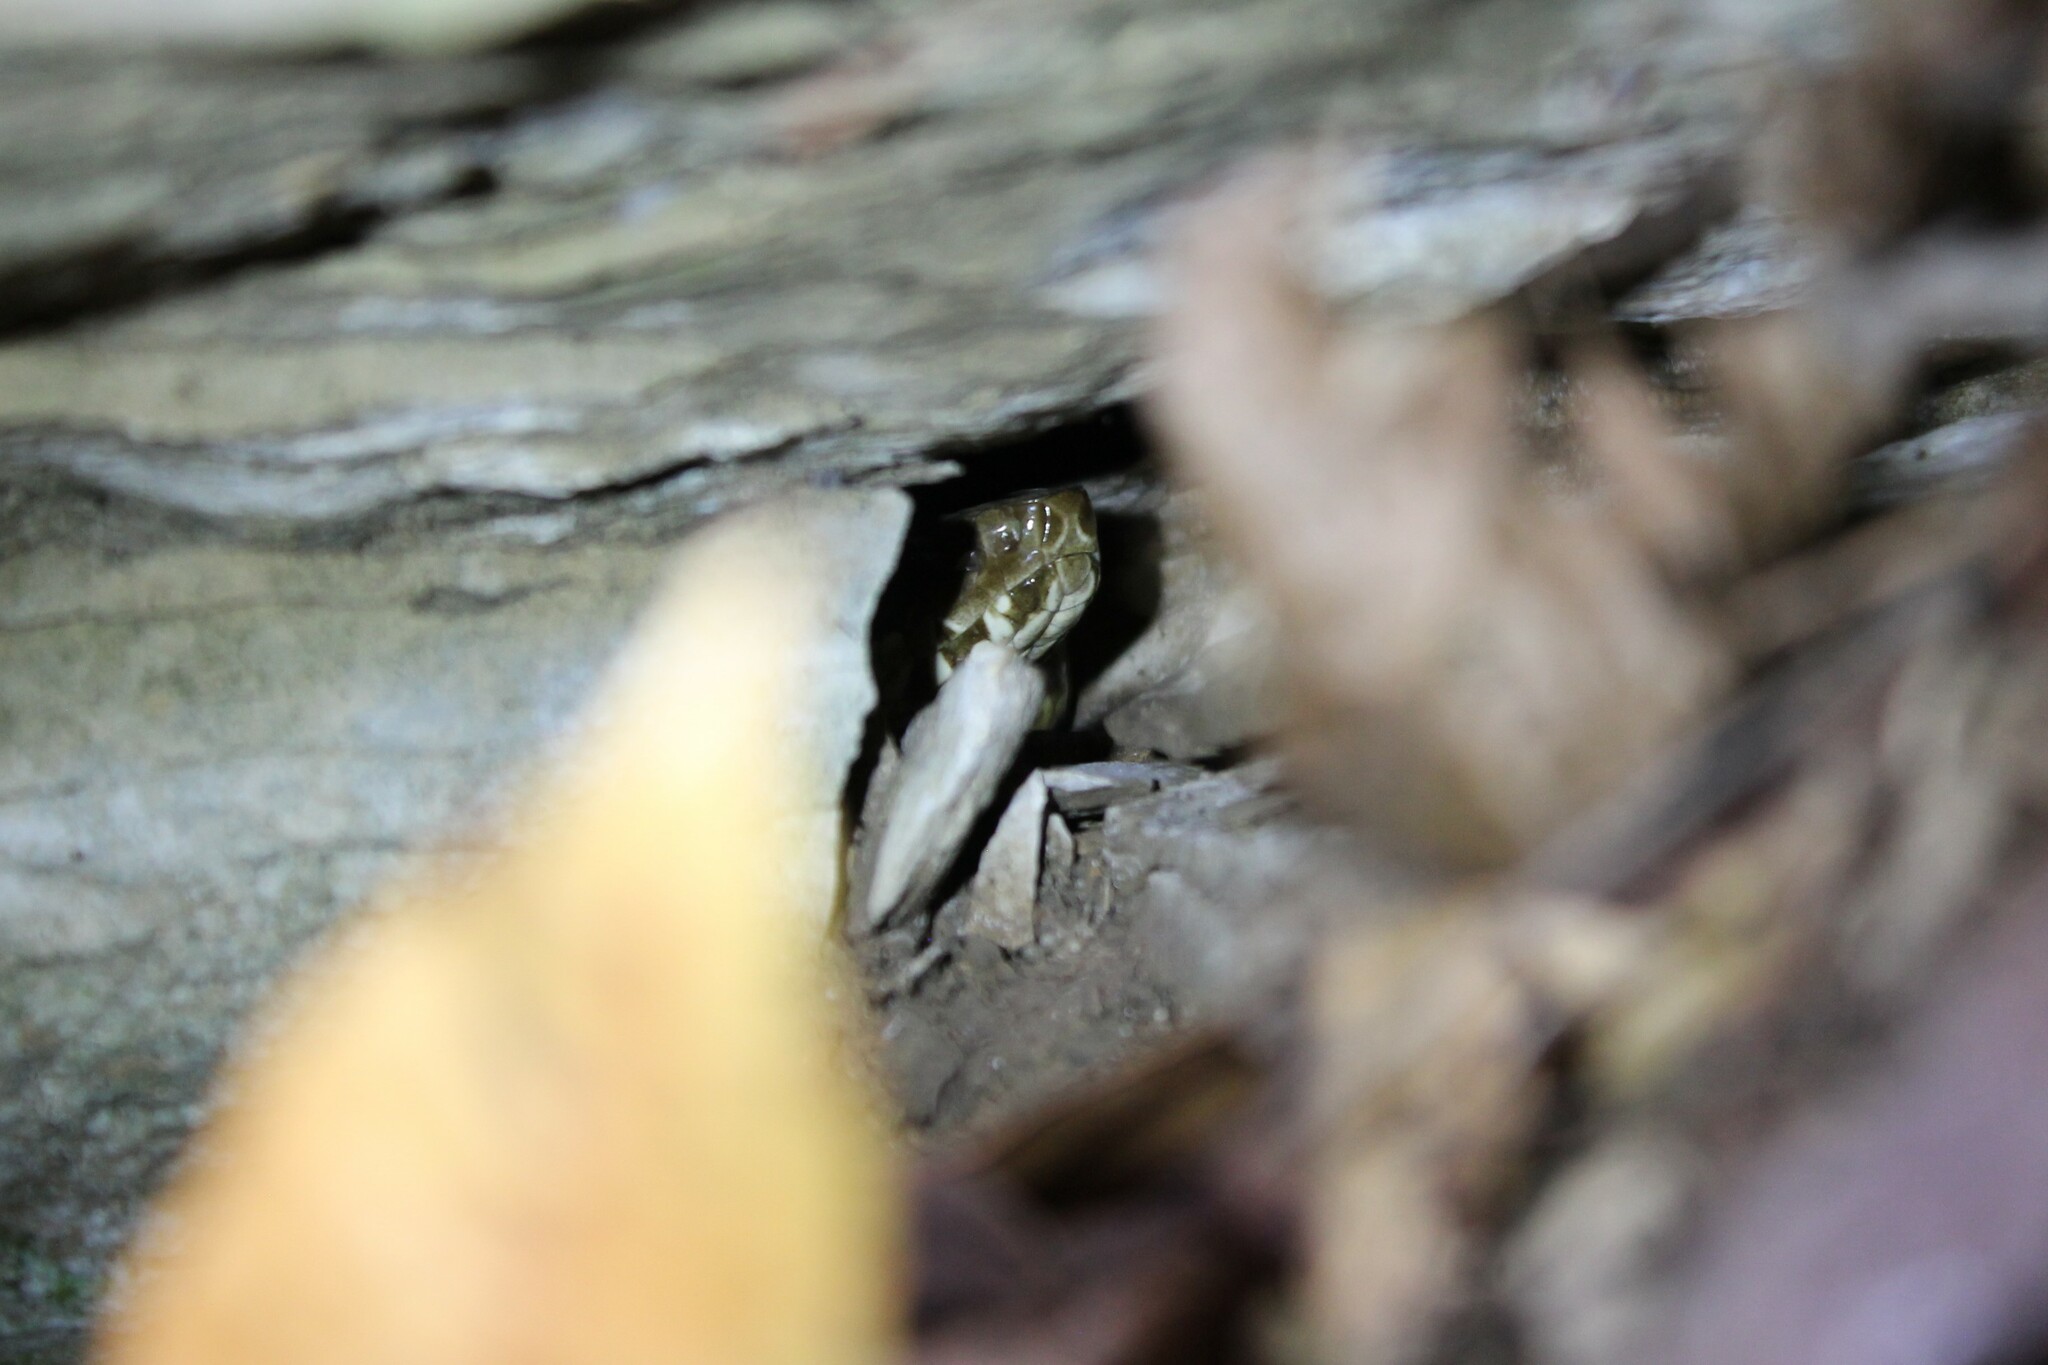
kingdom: Animalia
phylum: Chordata
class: Squamata
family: Viperidae
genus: Agkistrodon
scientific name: Agkistrodon piscivorus
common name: Cottonmouth
